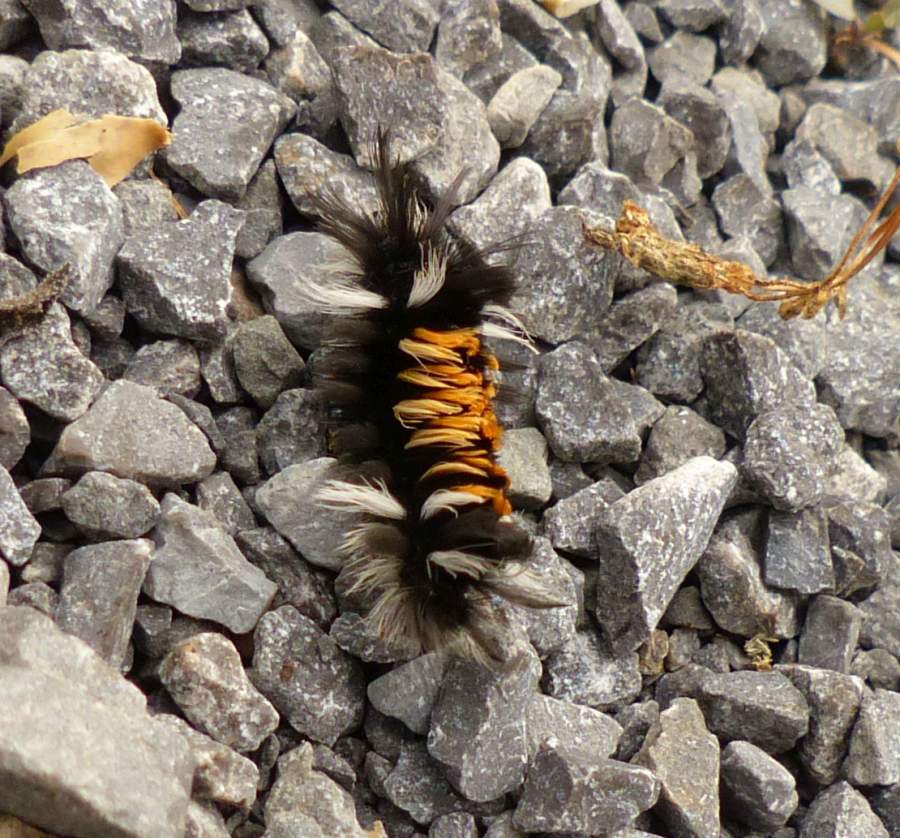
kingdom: Animalia
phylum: Arthropoda
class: Insecta
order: Lepidoptera
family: Erebidae
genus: Euchaetes
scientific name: Euchaetes egle
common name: Milkweed tussock moth
